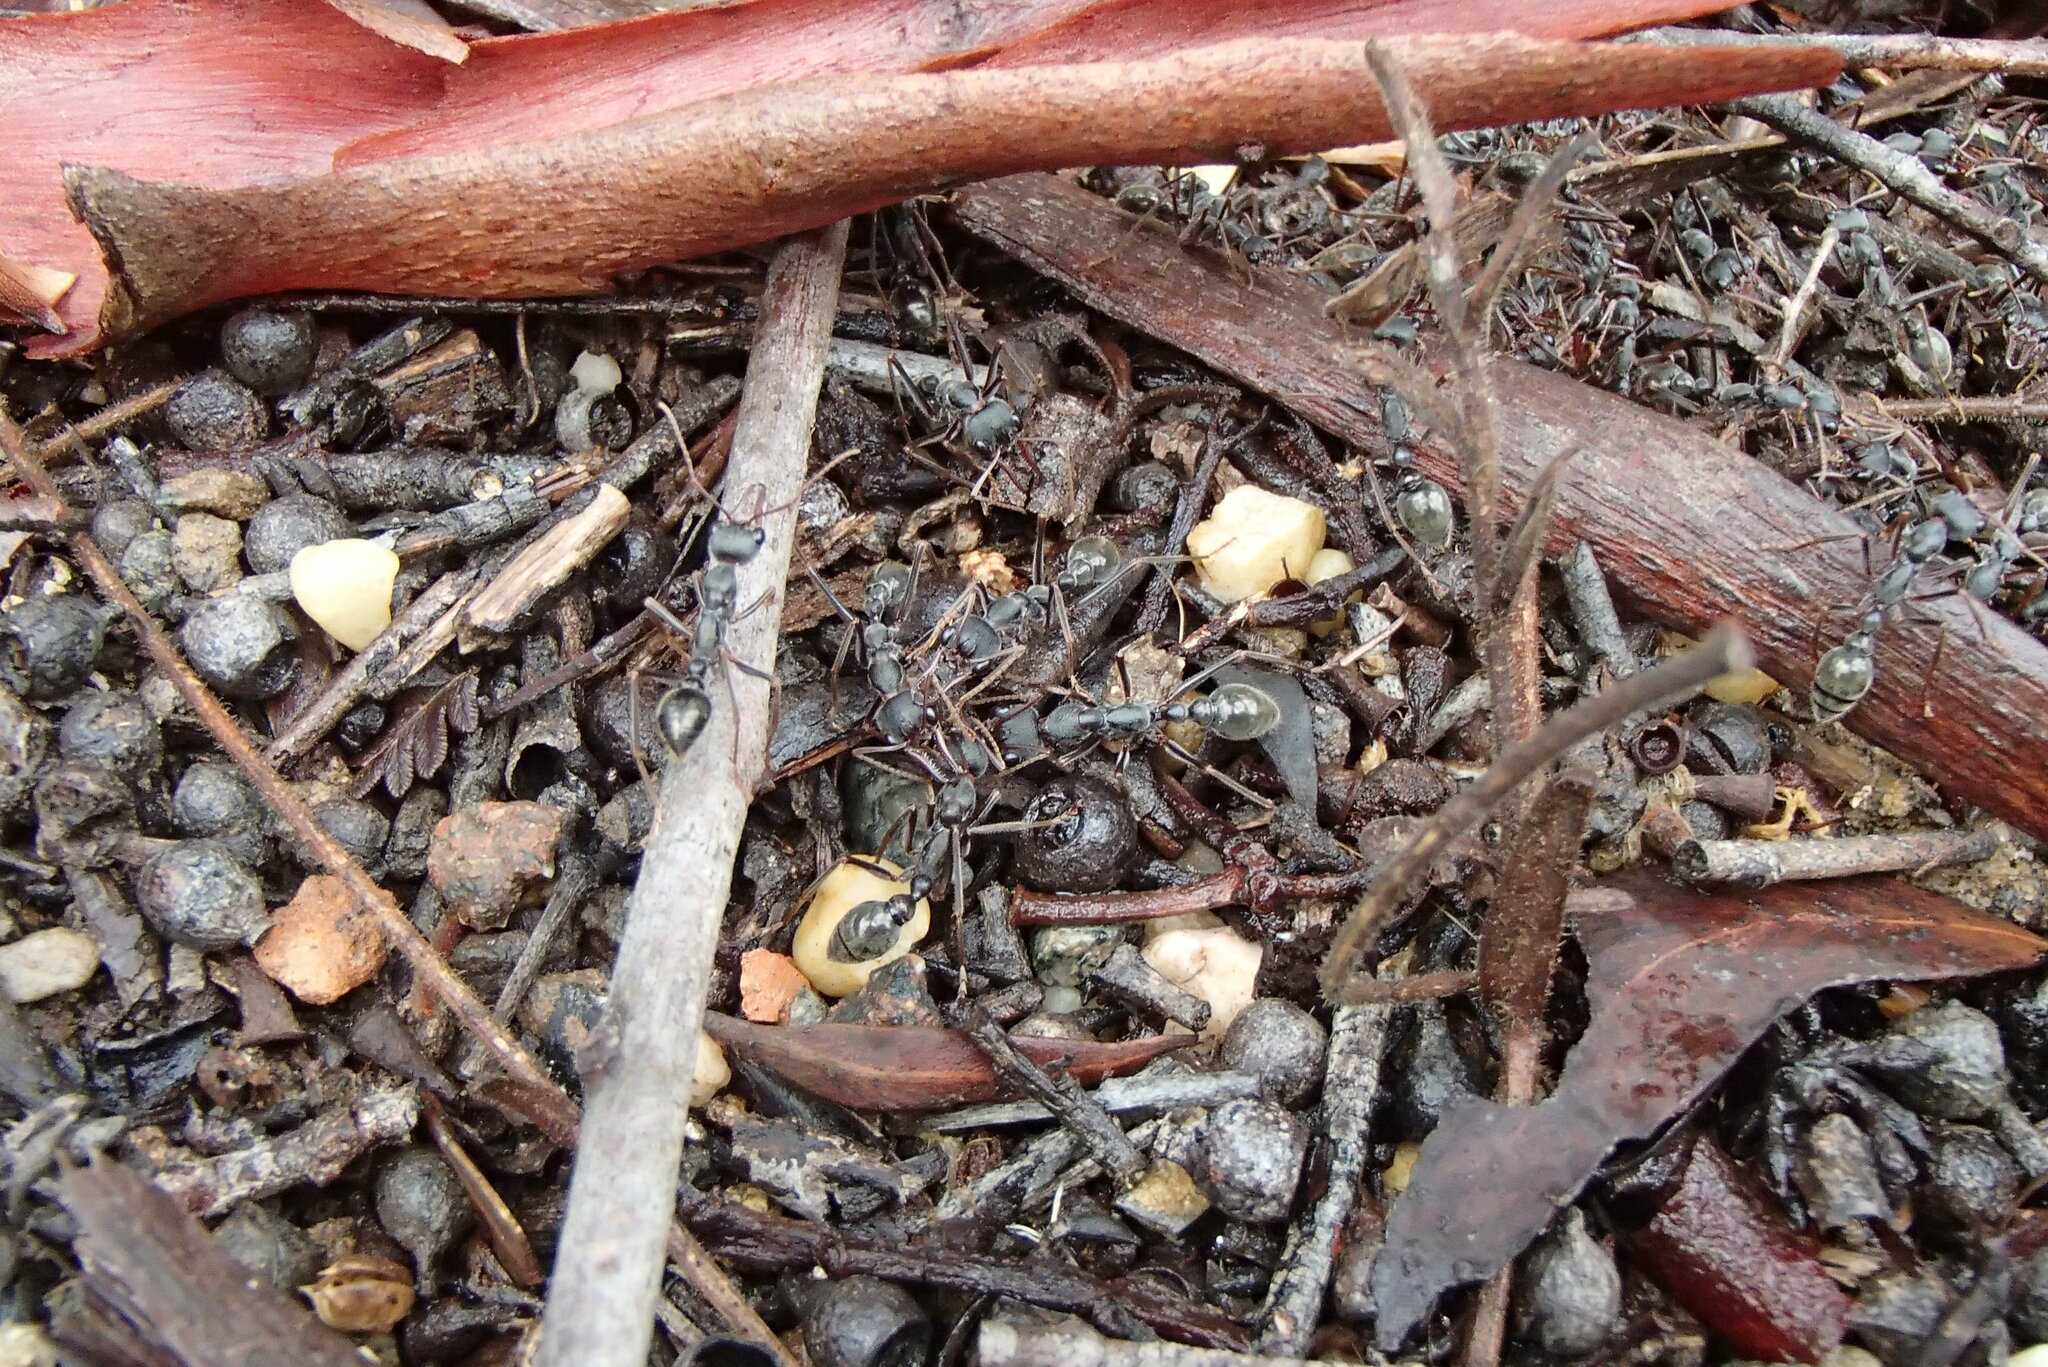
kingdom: Animalia
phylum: Arthropoda
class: Insecta
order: Hymenoptera
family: Formicidae
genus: Myrmecia
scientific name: Myrmecia pyriformis
